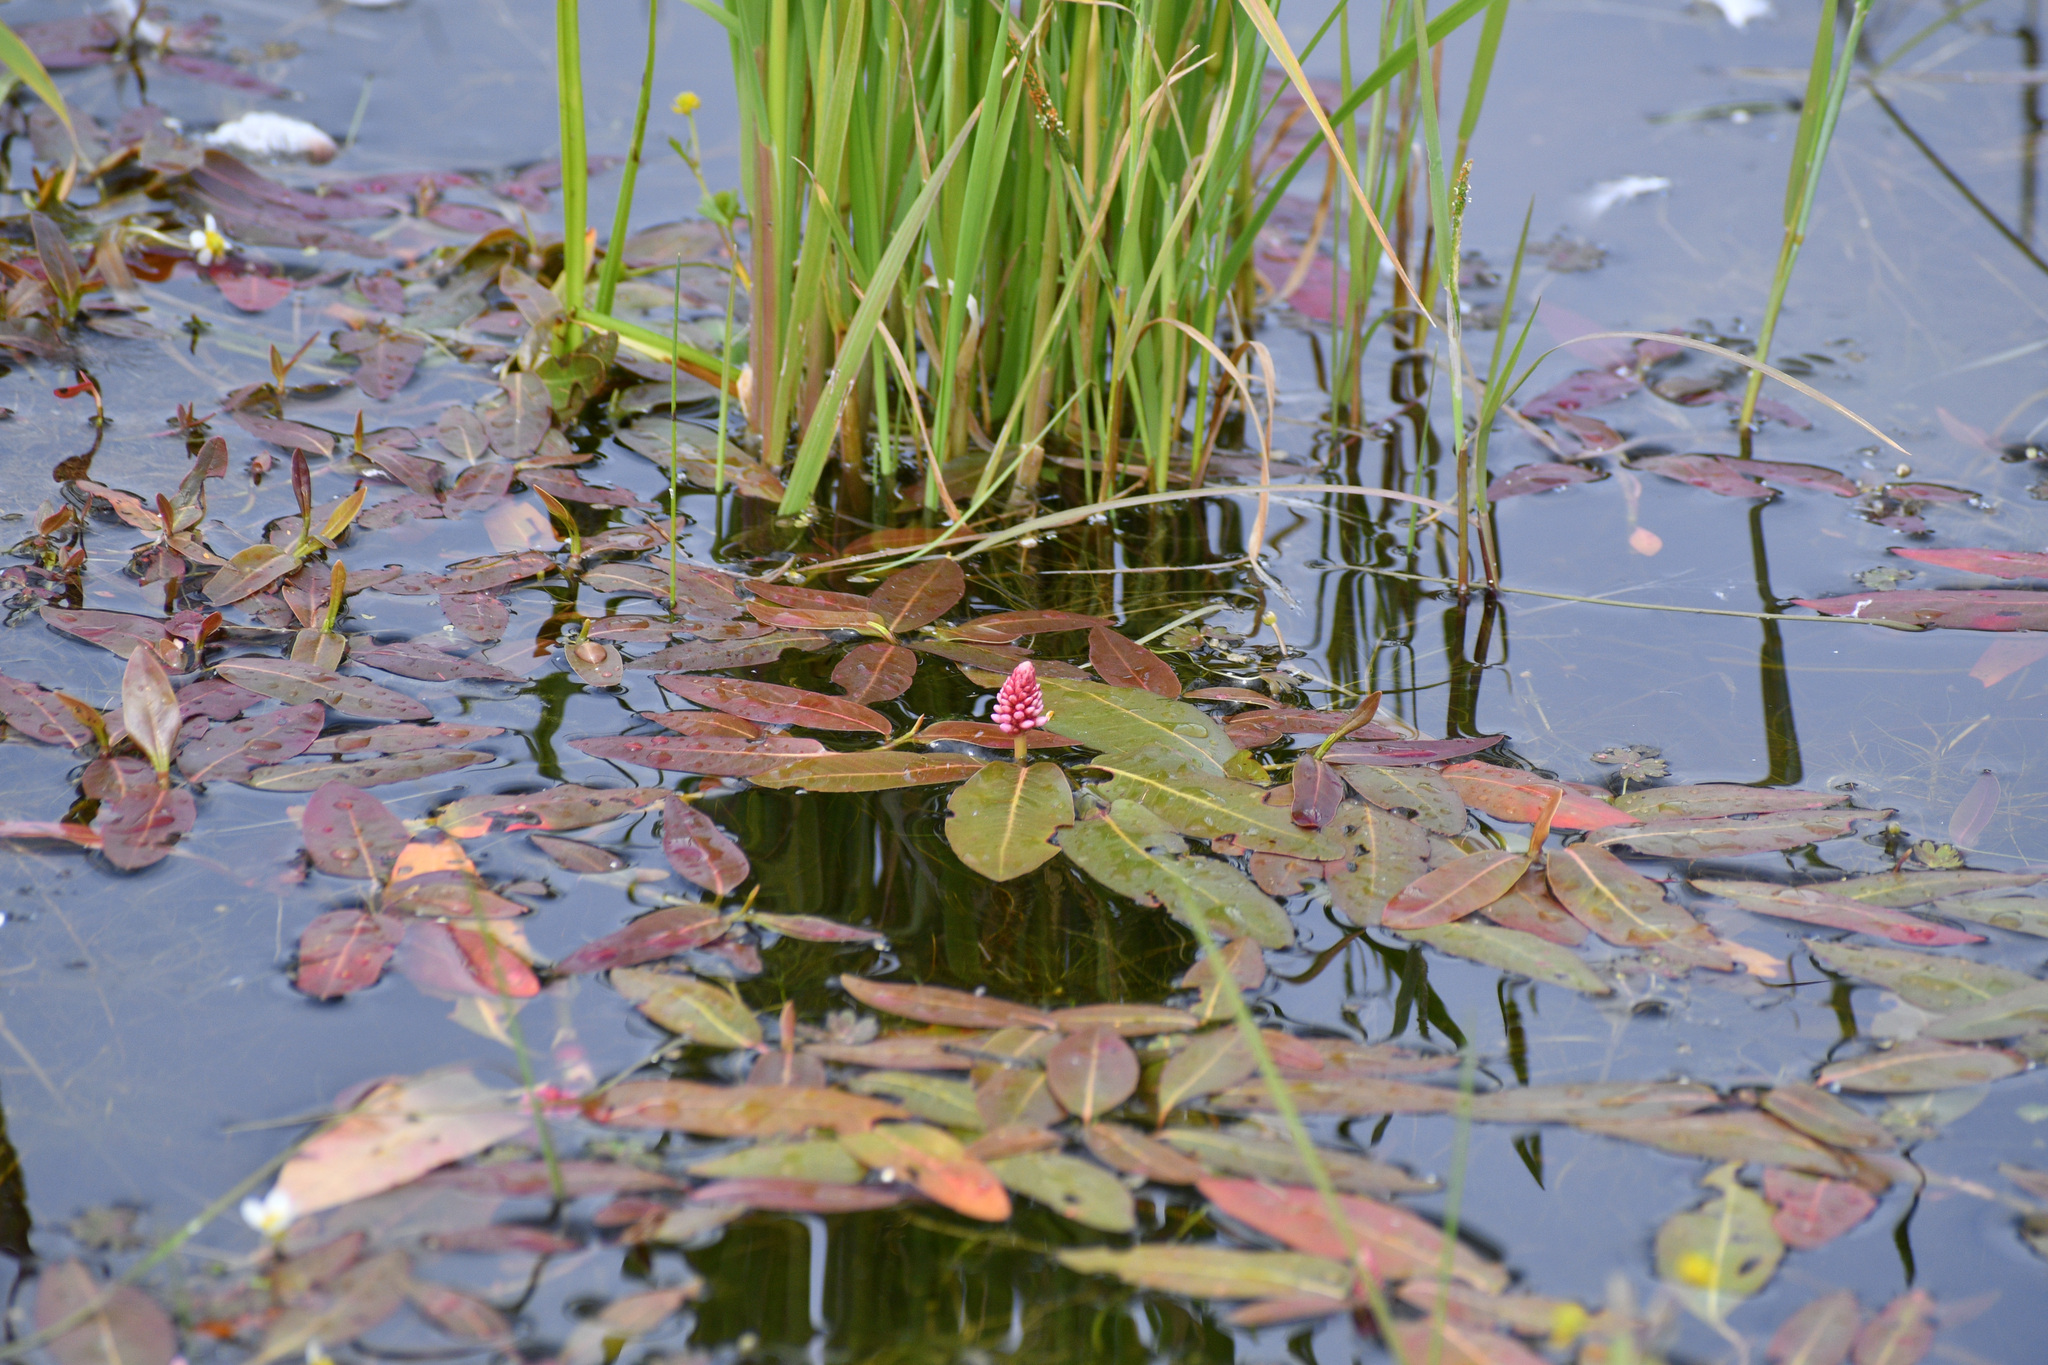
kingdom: Plantae
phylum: Tracheophyta
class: Magnoliopsida
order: Caryophyllales
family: Polygonaceae
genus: Persicaria
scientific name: Persicaria amphibia
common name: Amphibious bistort
